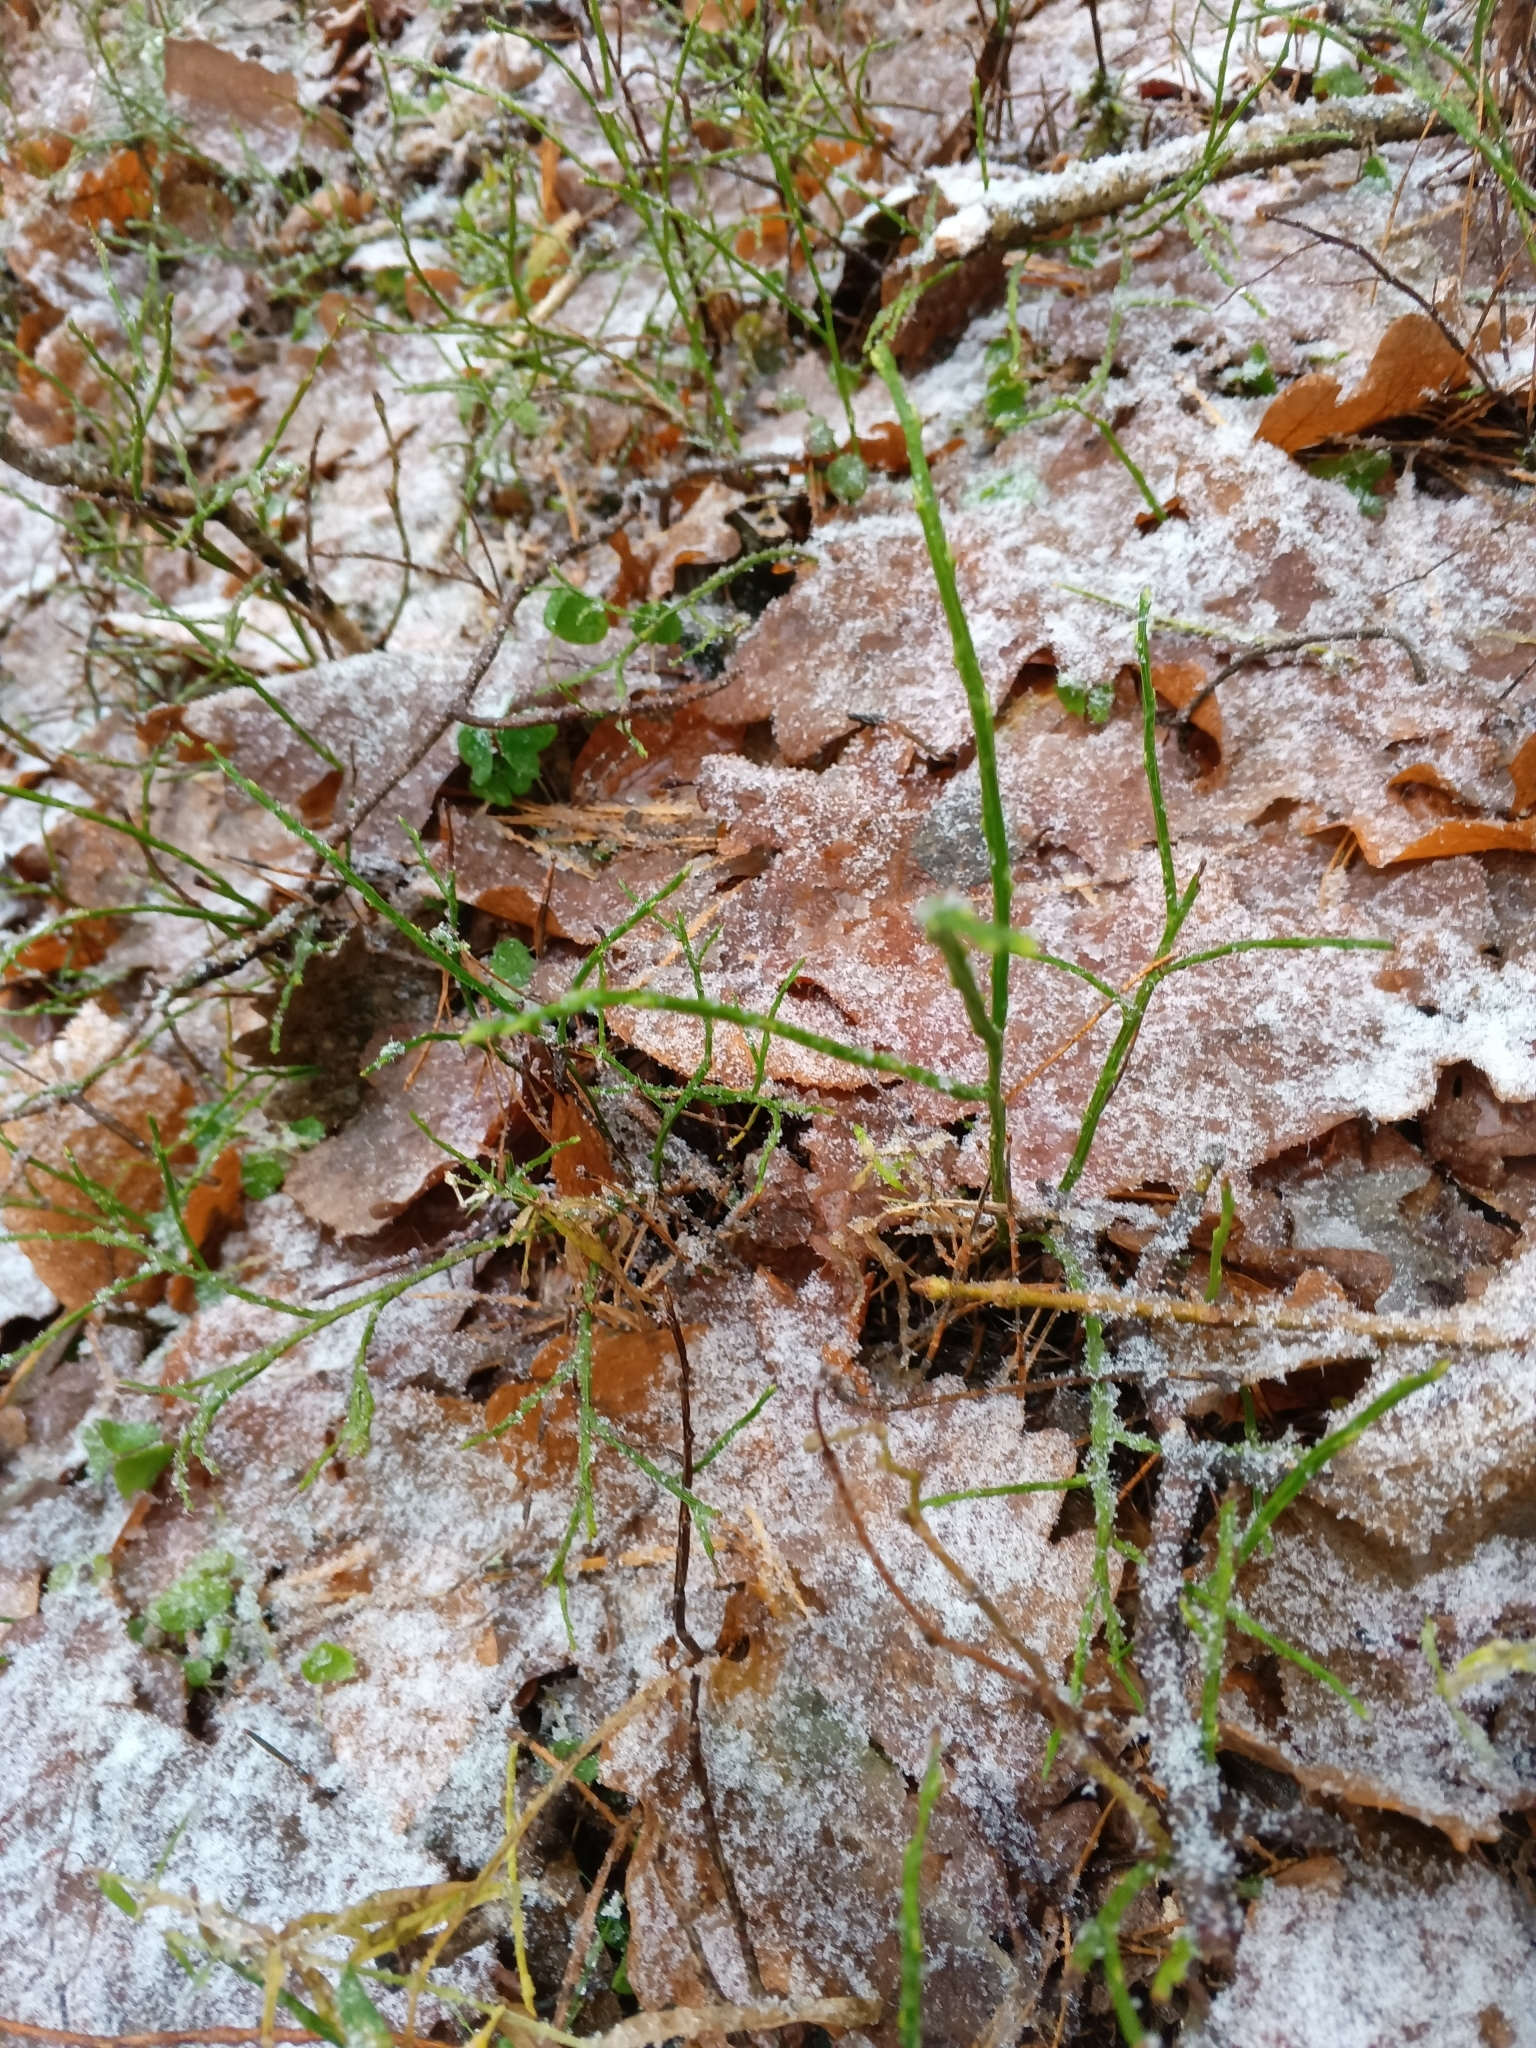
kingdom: Plantae
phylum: Tracheophyta
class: Magnoliopsida
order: Ericales
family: Ericaceae
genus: Vaccinium
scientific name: Vaccinium myrtillus
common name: Bilberry
